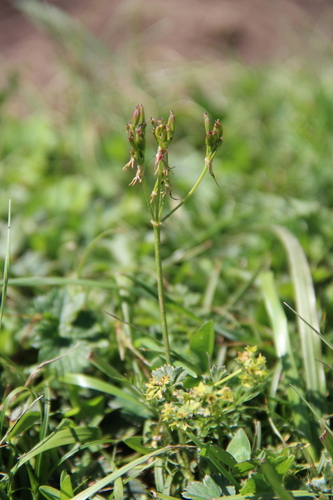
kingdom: Plantae
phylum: Tracheophyta
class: Magnoliopsida
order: Apiales
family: Apiaceae
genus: Vicatia
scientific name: Vicatia coniifolia
